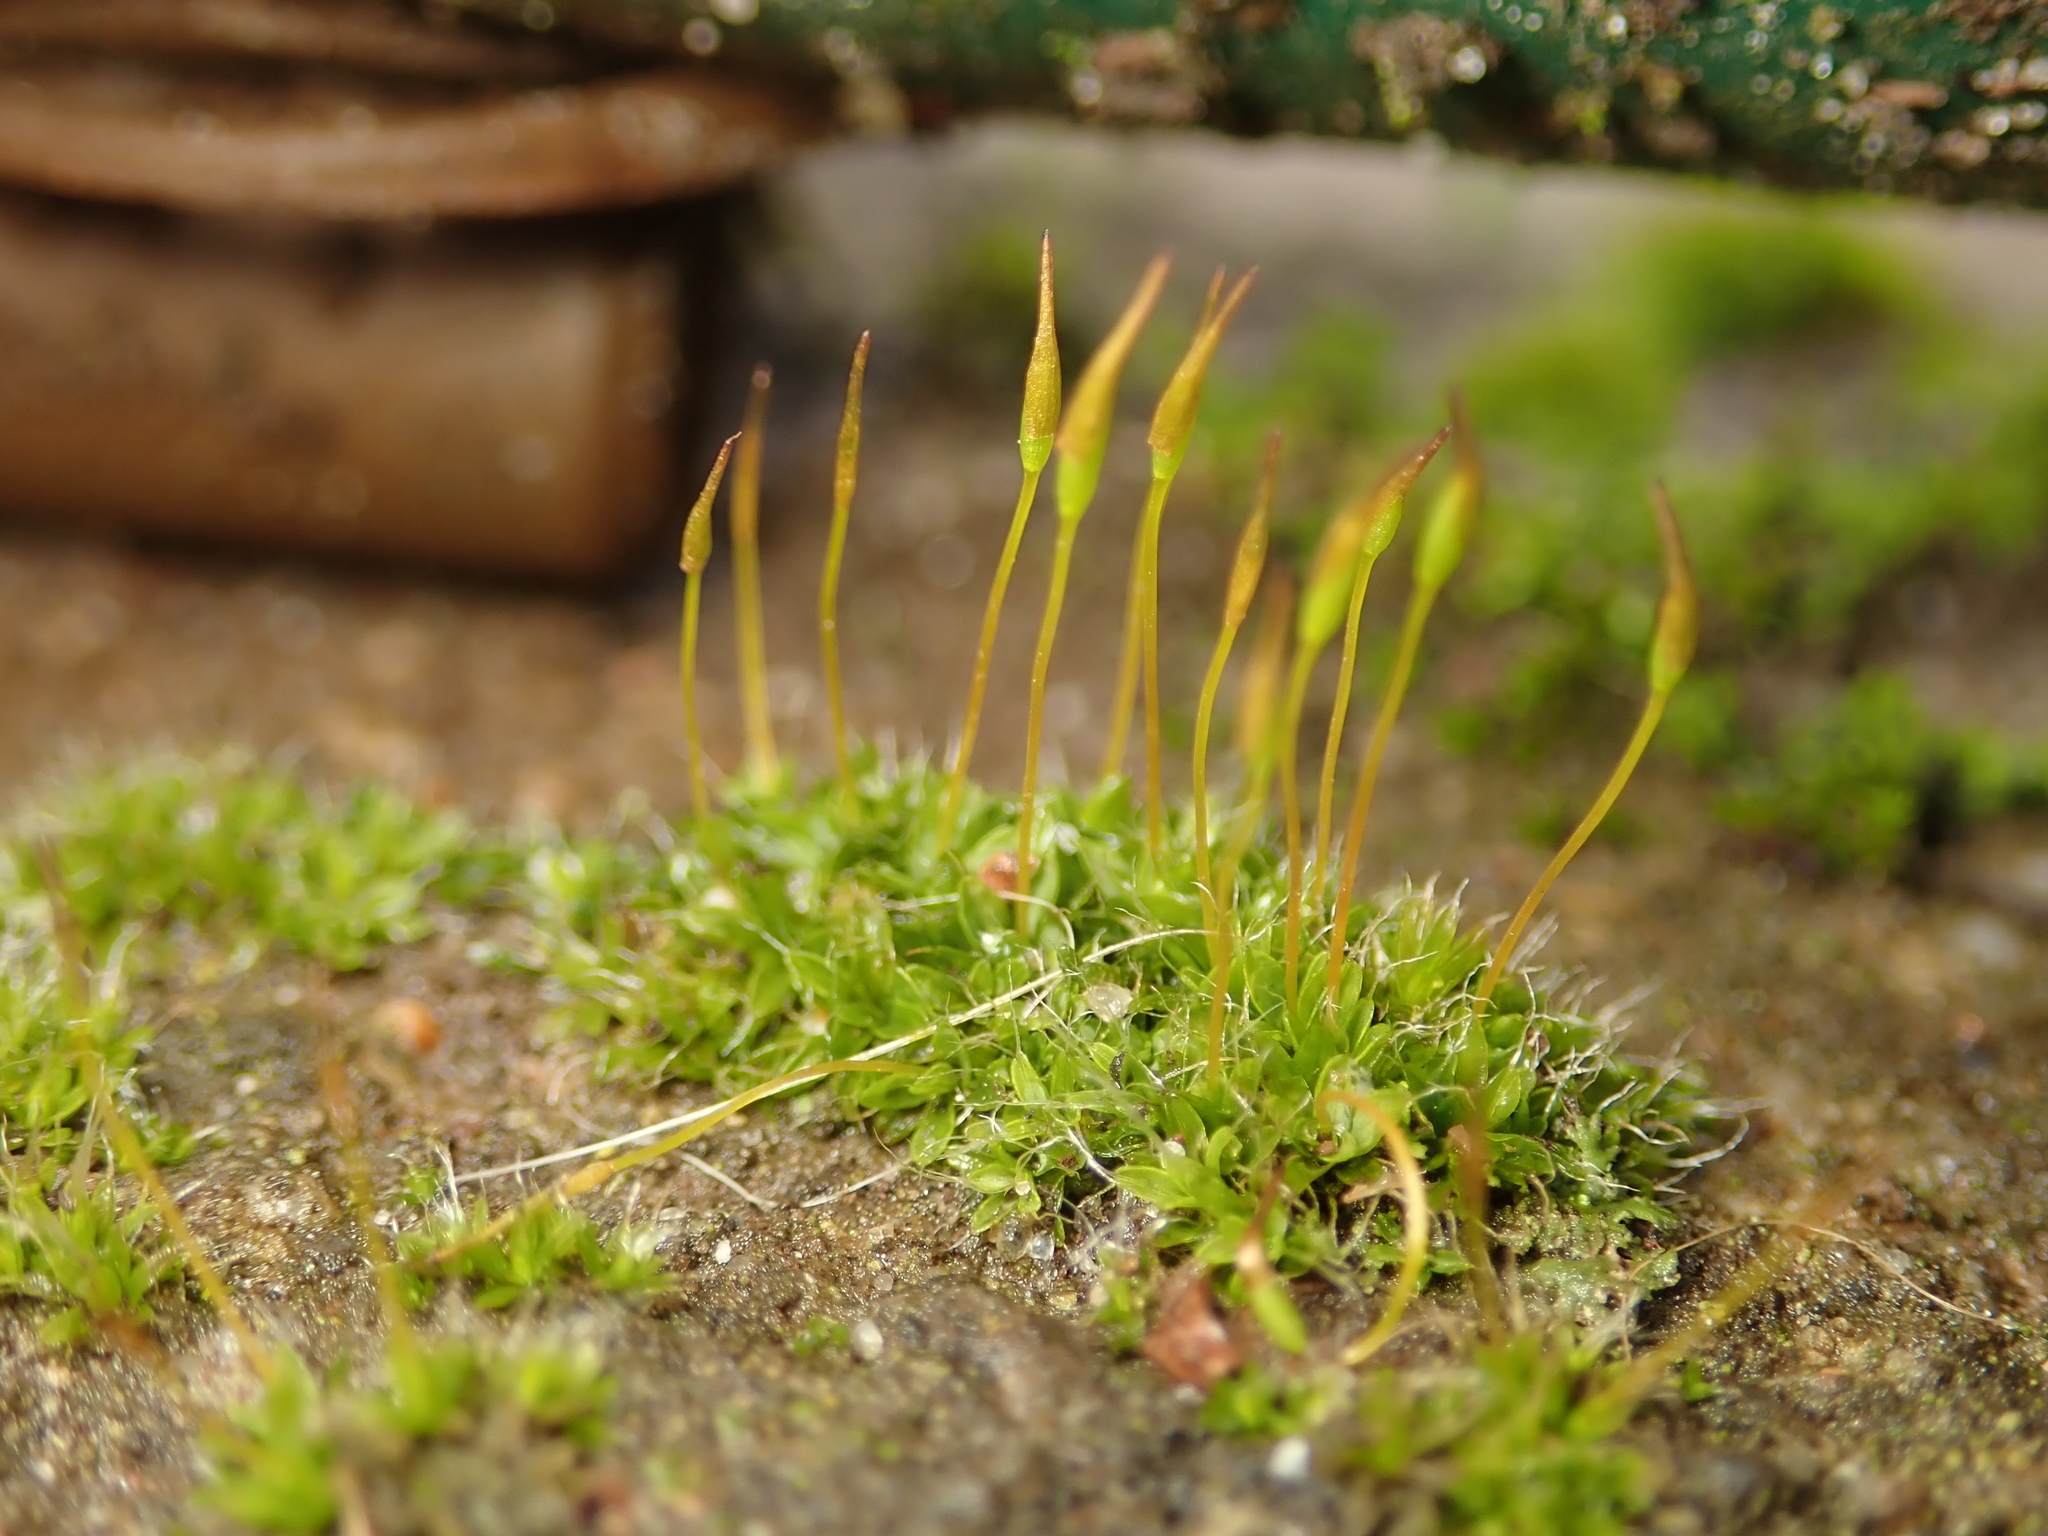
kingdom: Plantae
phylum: Bryophyta
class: Bryopsida
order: Pottiales
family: Pottiaceae
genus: Tortula
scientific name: Tortula muralis
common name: Wall screw-moss
